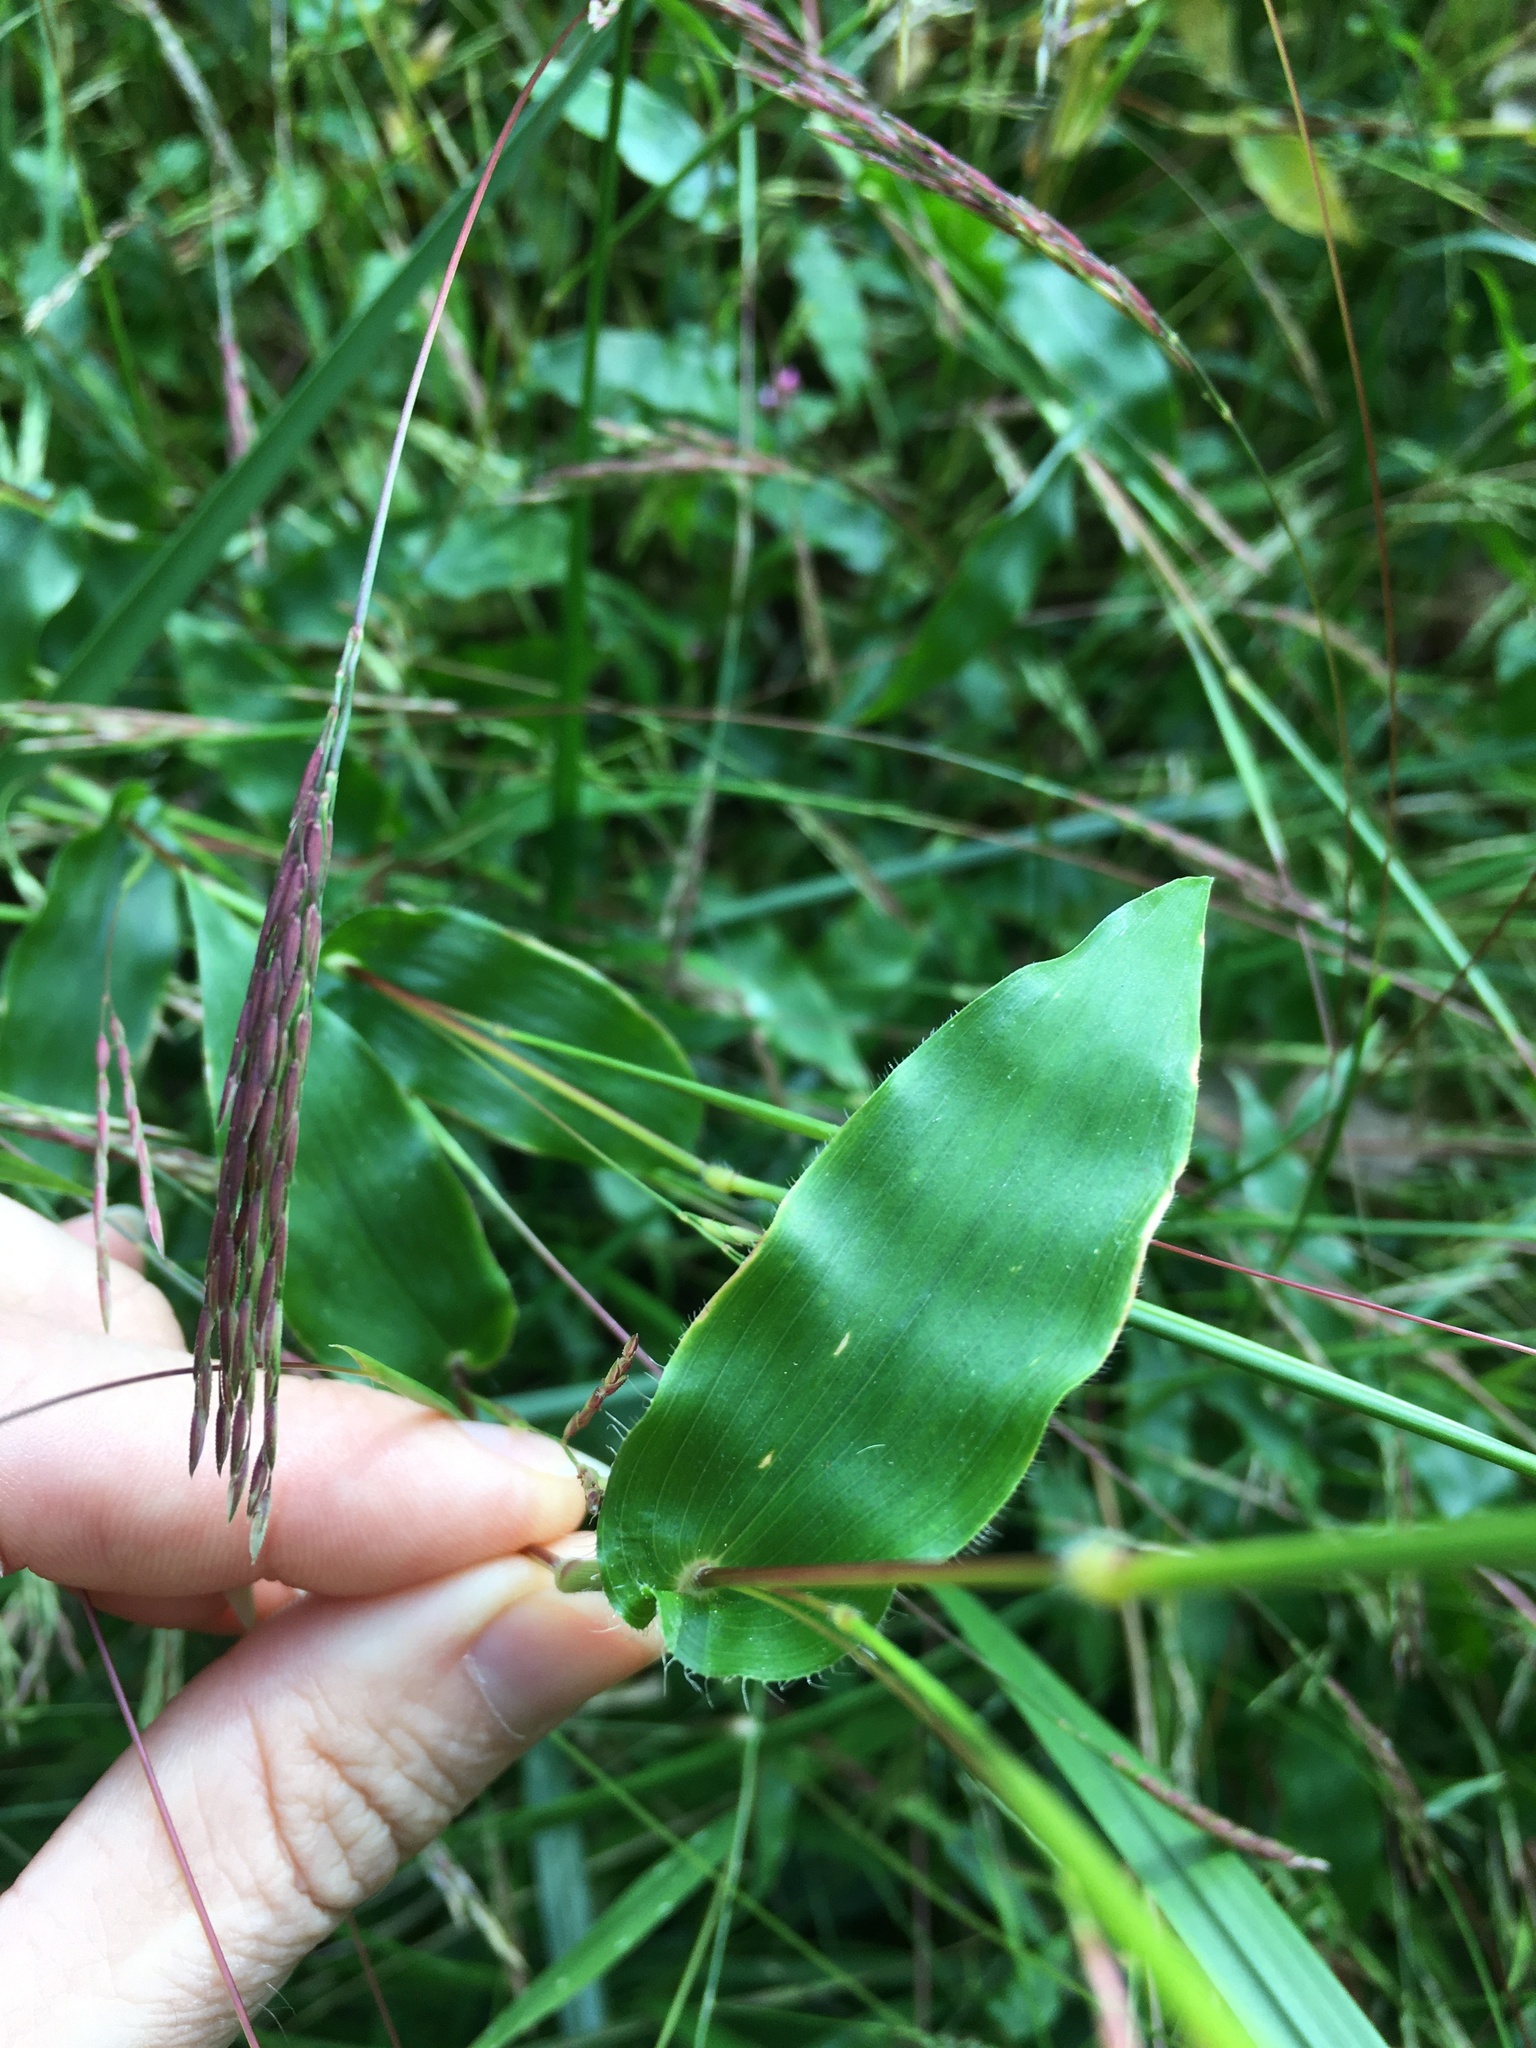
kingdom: Plantae
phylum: Tracheophyta
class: Liliopsida
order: Poales
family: Poaceae
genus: Arthraxon
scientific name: Arthraxon hispidus
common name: Small carpgrass
